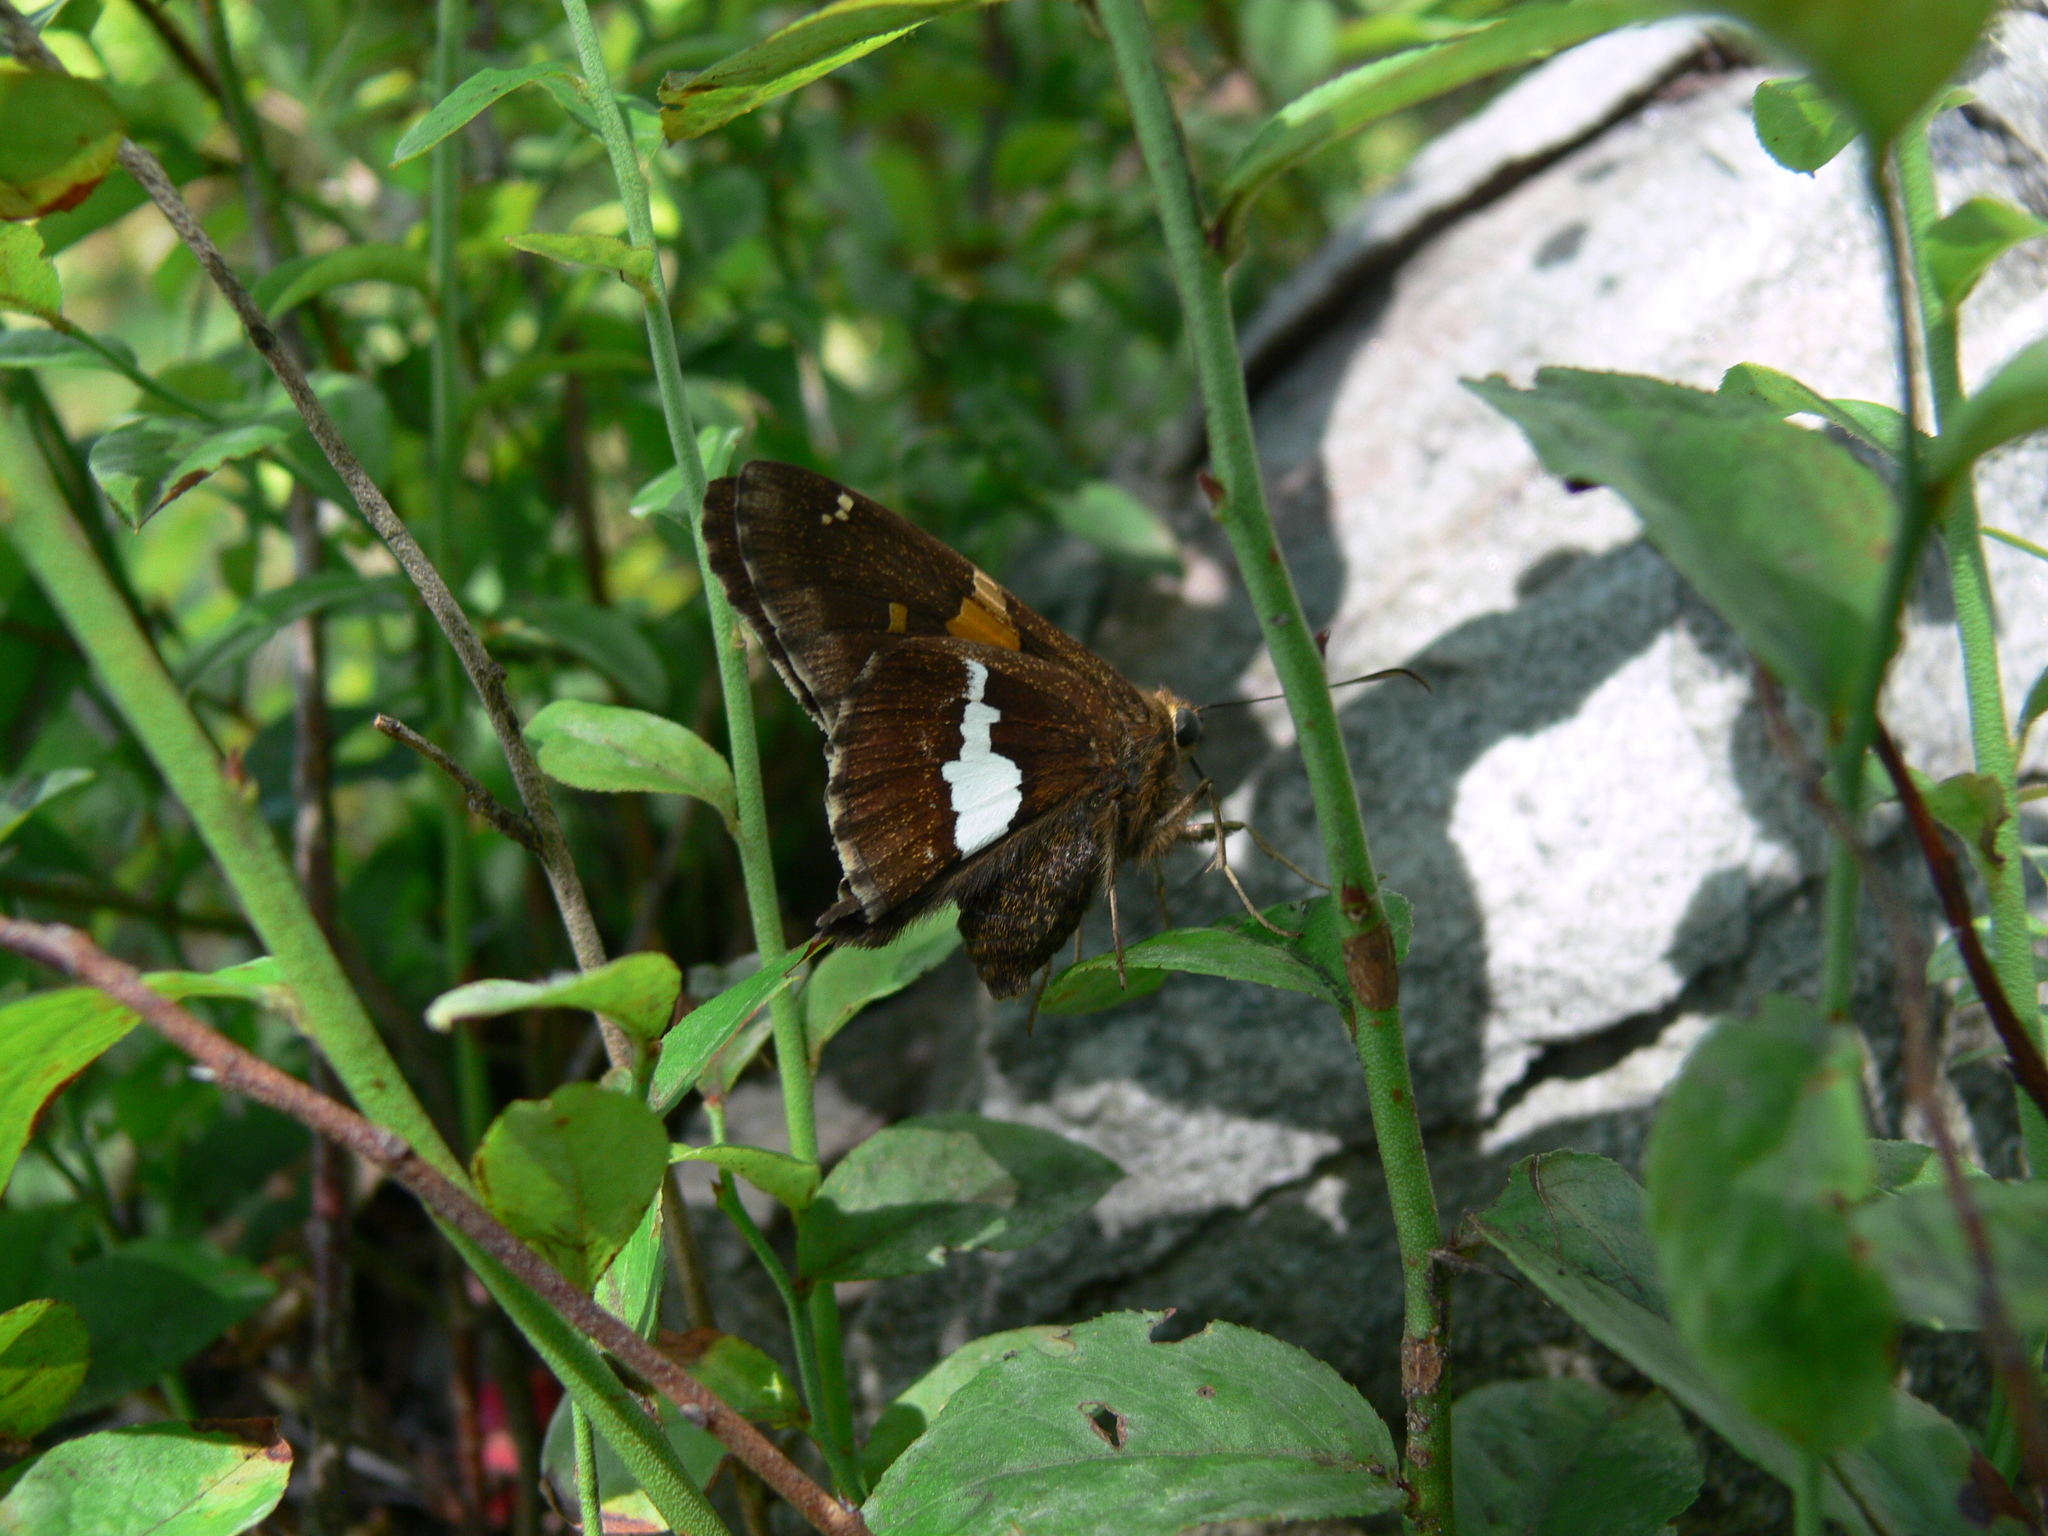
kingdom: Animalia
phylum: Arthropoda
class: Insecta
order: Lepidoptera
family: Hesperiidae
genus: Epargyreus
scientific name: Epargyreus clarus
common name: Silver-spotted skipper
